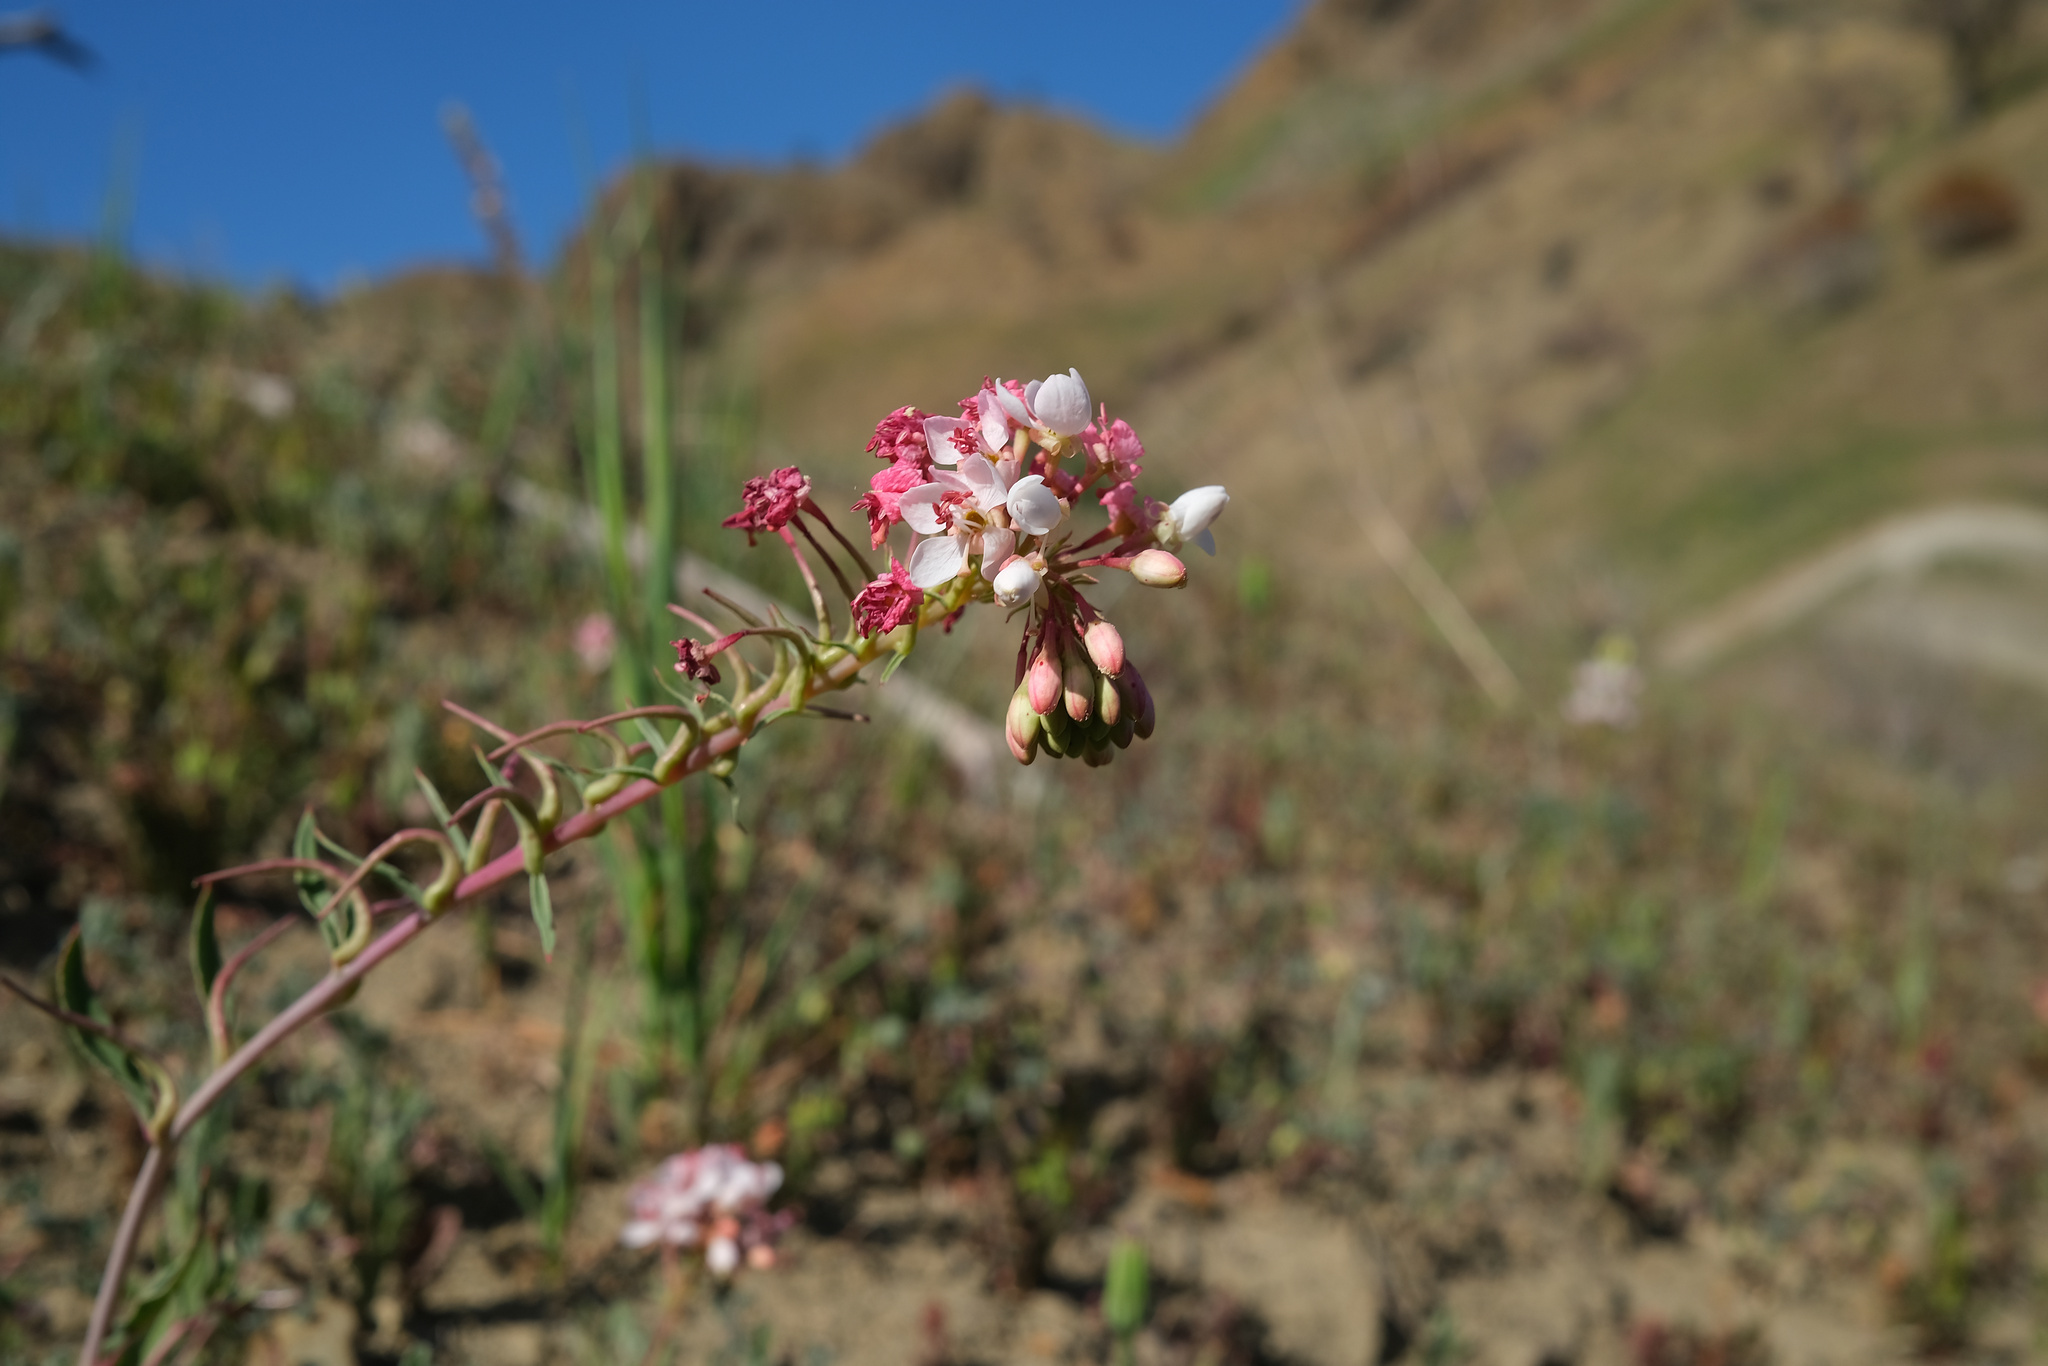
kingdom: Plantae
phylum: Tracheophyta
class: Magnoliopsida
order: Myrtales
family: Onagraceae
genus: Eremothera
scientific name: Eremothera boothii
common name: Booth's evening primrose
